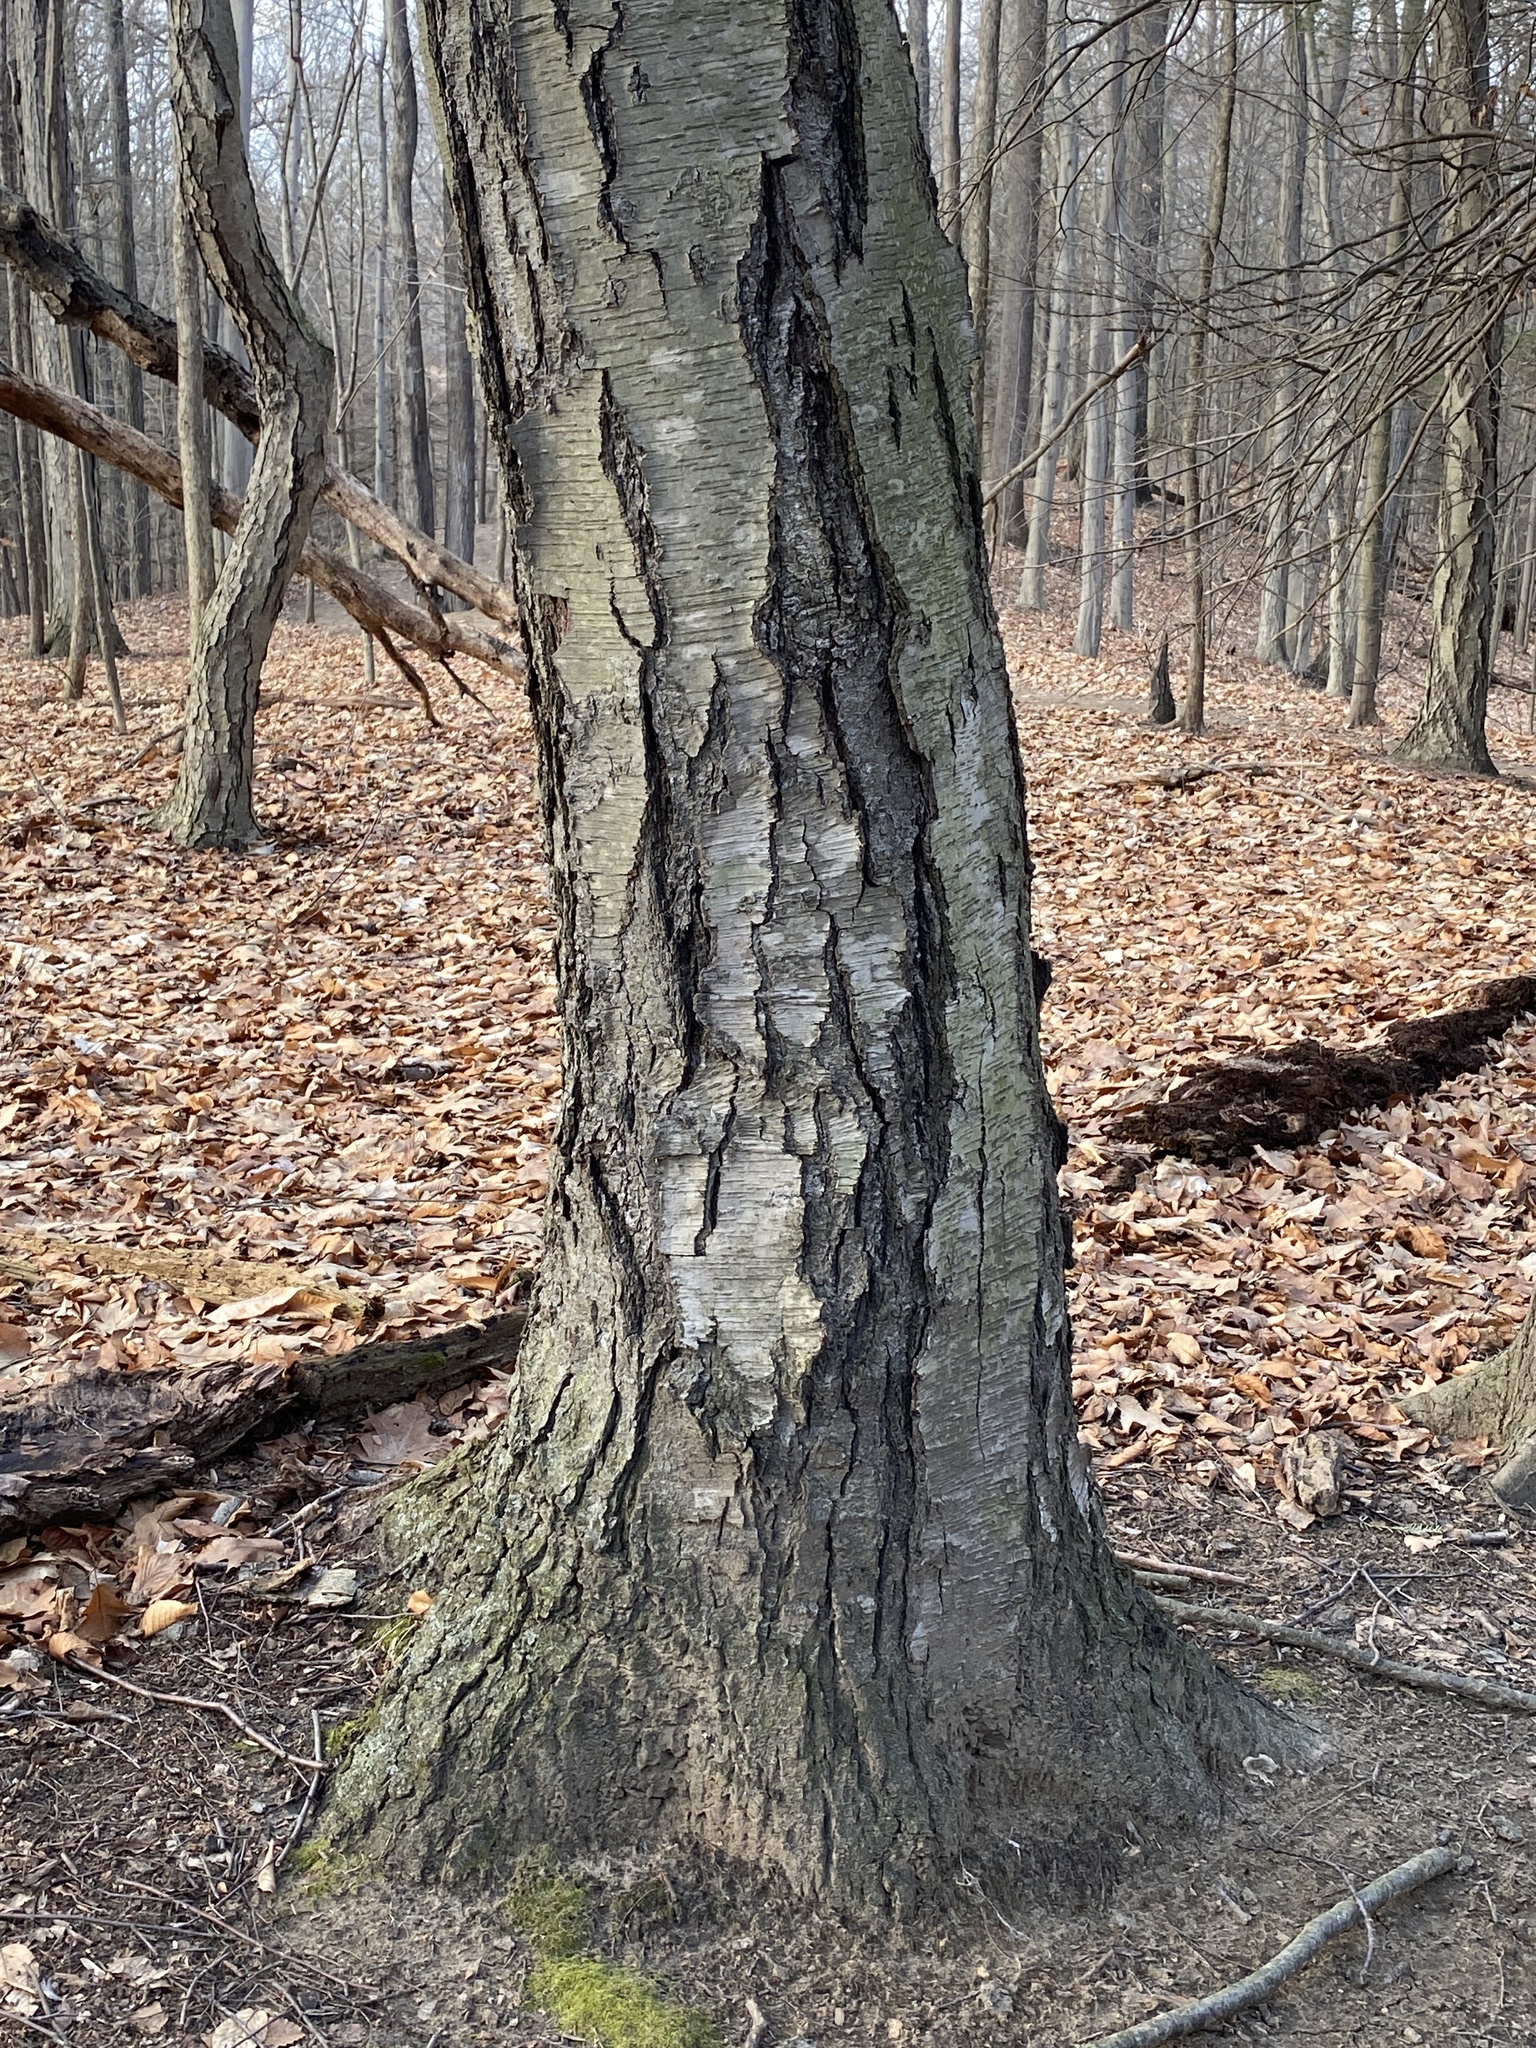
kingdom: Plantae
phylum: Tracheophyta
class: Magnoliopsida
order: Fagales
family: Betulaceae
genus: Betula
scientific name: Betula lenta
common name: Black birch
